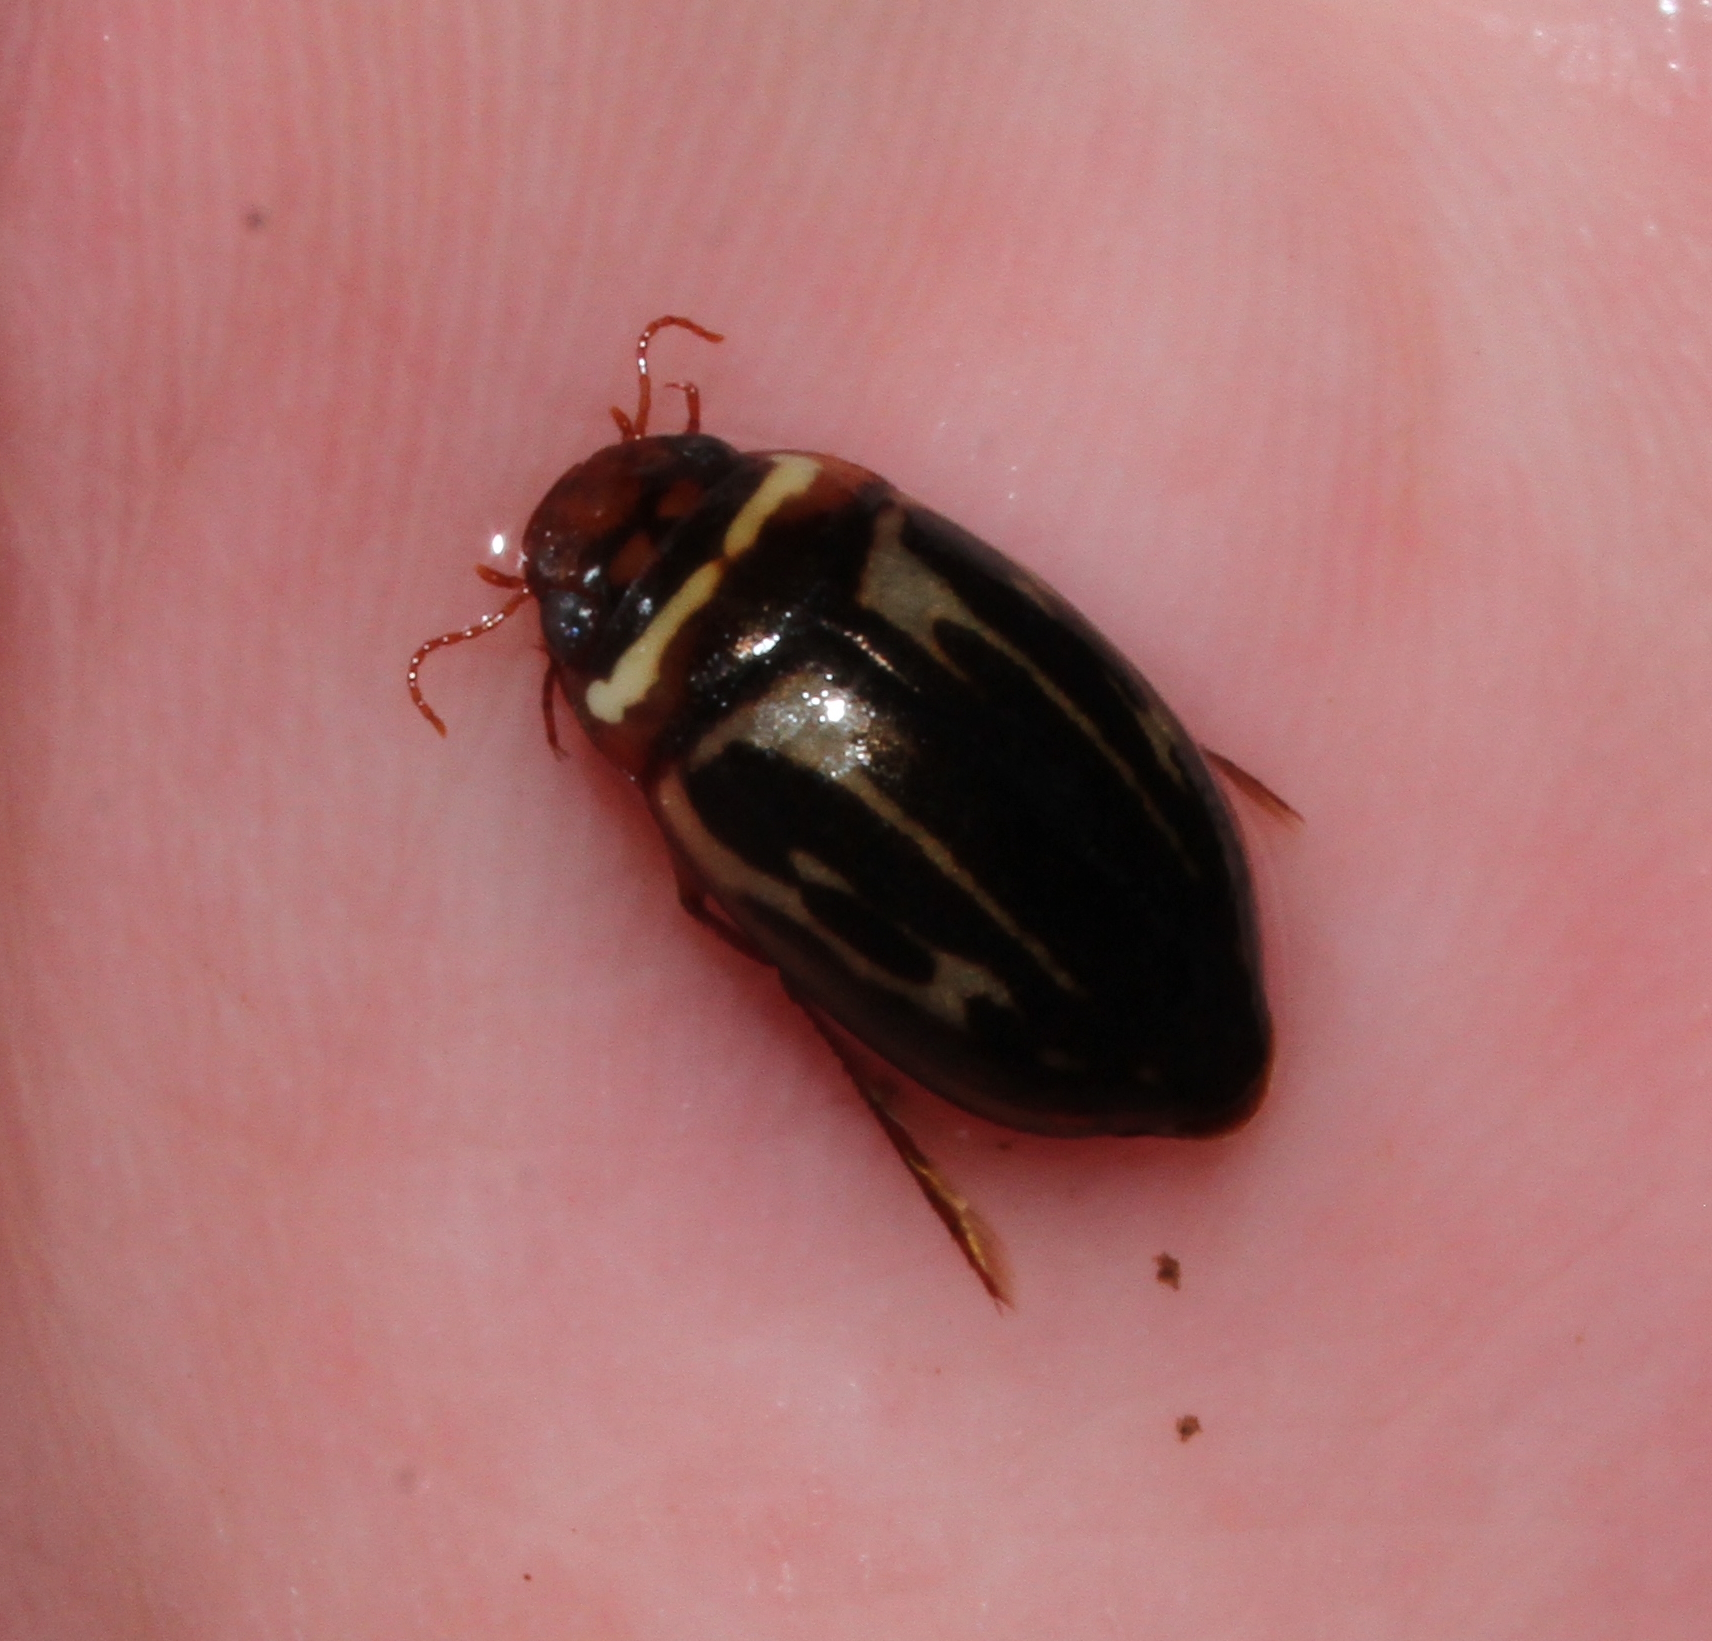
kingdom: Animalia
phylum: Arthropoda
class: Insecta
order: Coleoptera
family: Dytiscidae
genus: Platambus
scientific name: Platambus maculatus
